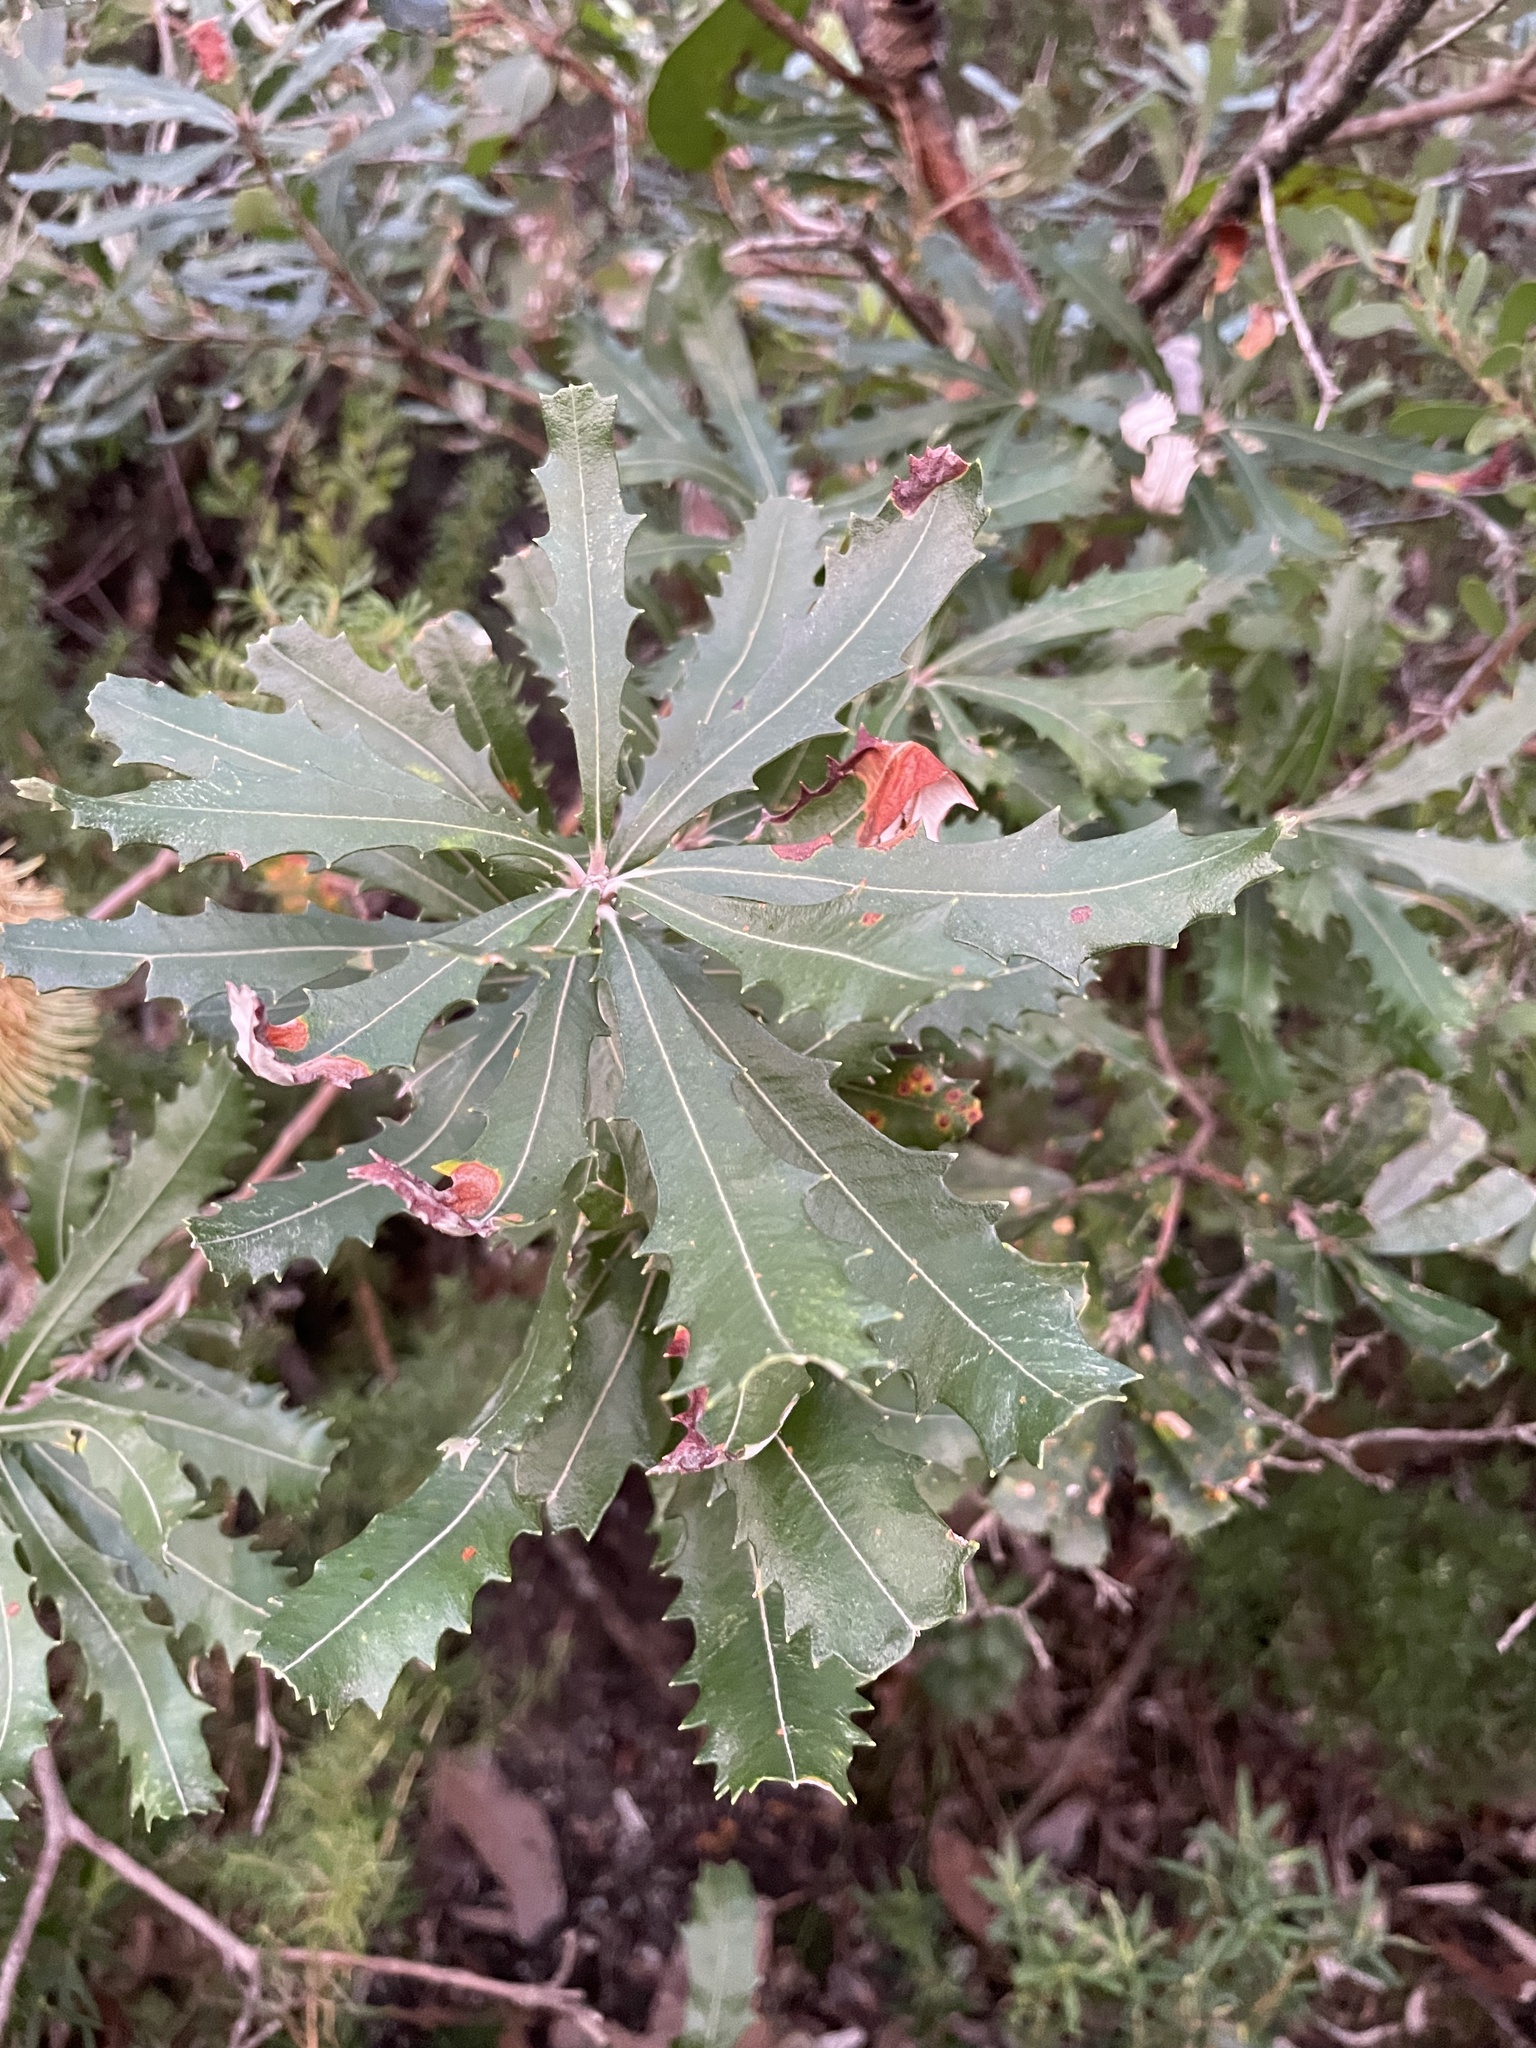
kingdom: Plantae
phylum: Tracheophyta
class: Magnoliopsida
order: Proteales
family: Proteaceae
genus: Banksia
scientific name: Banksia serrata
